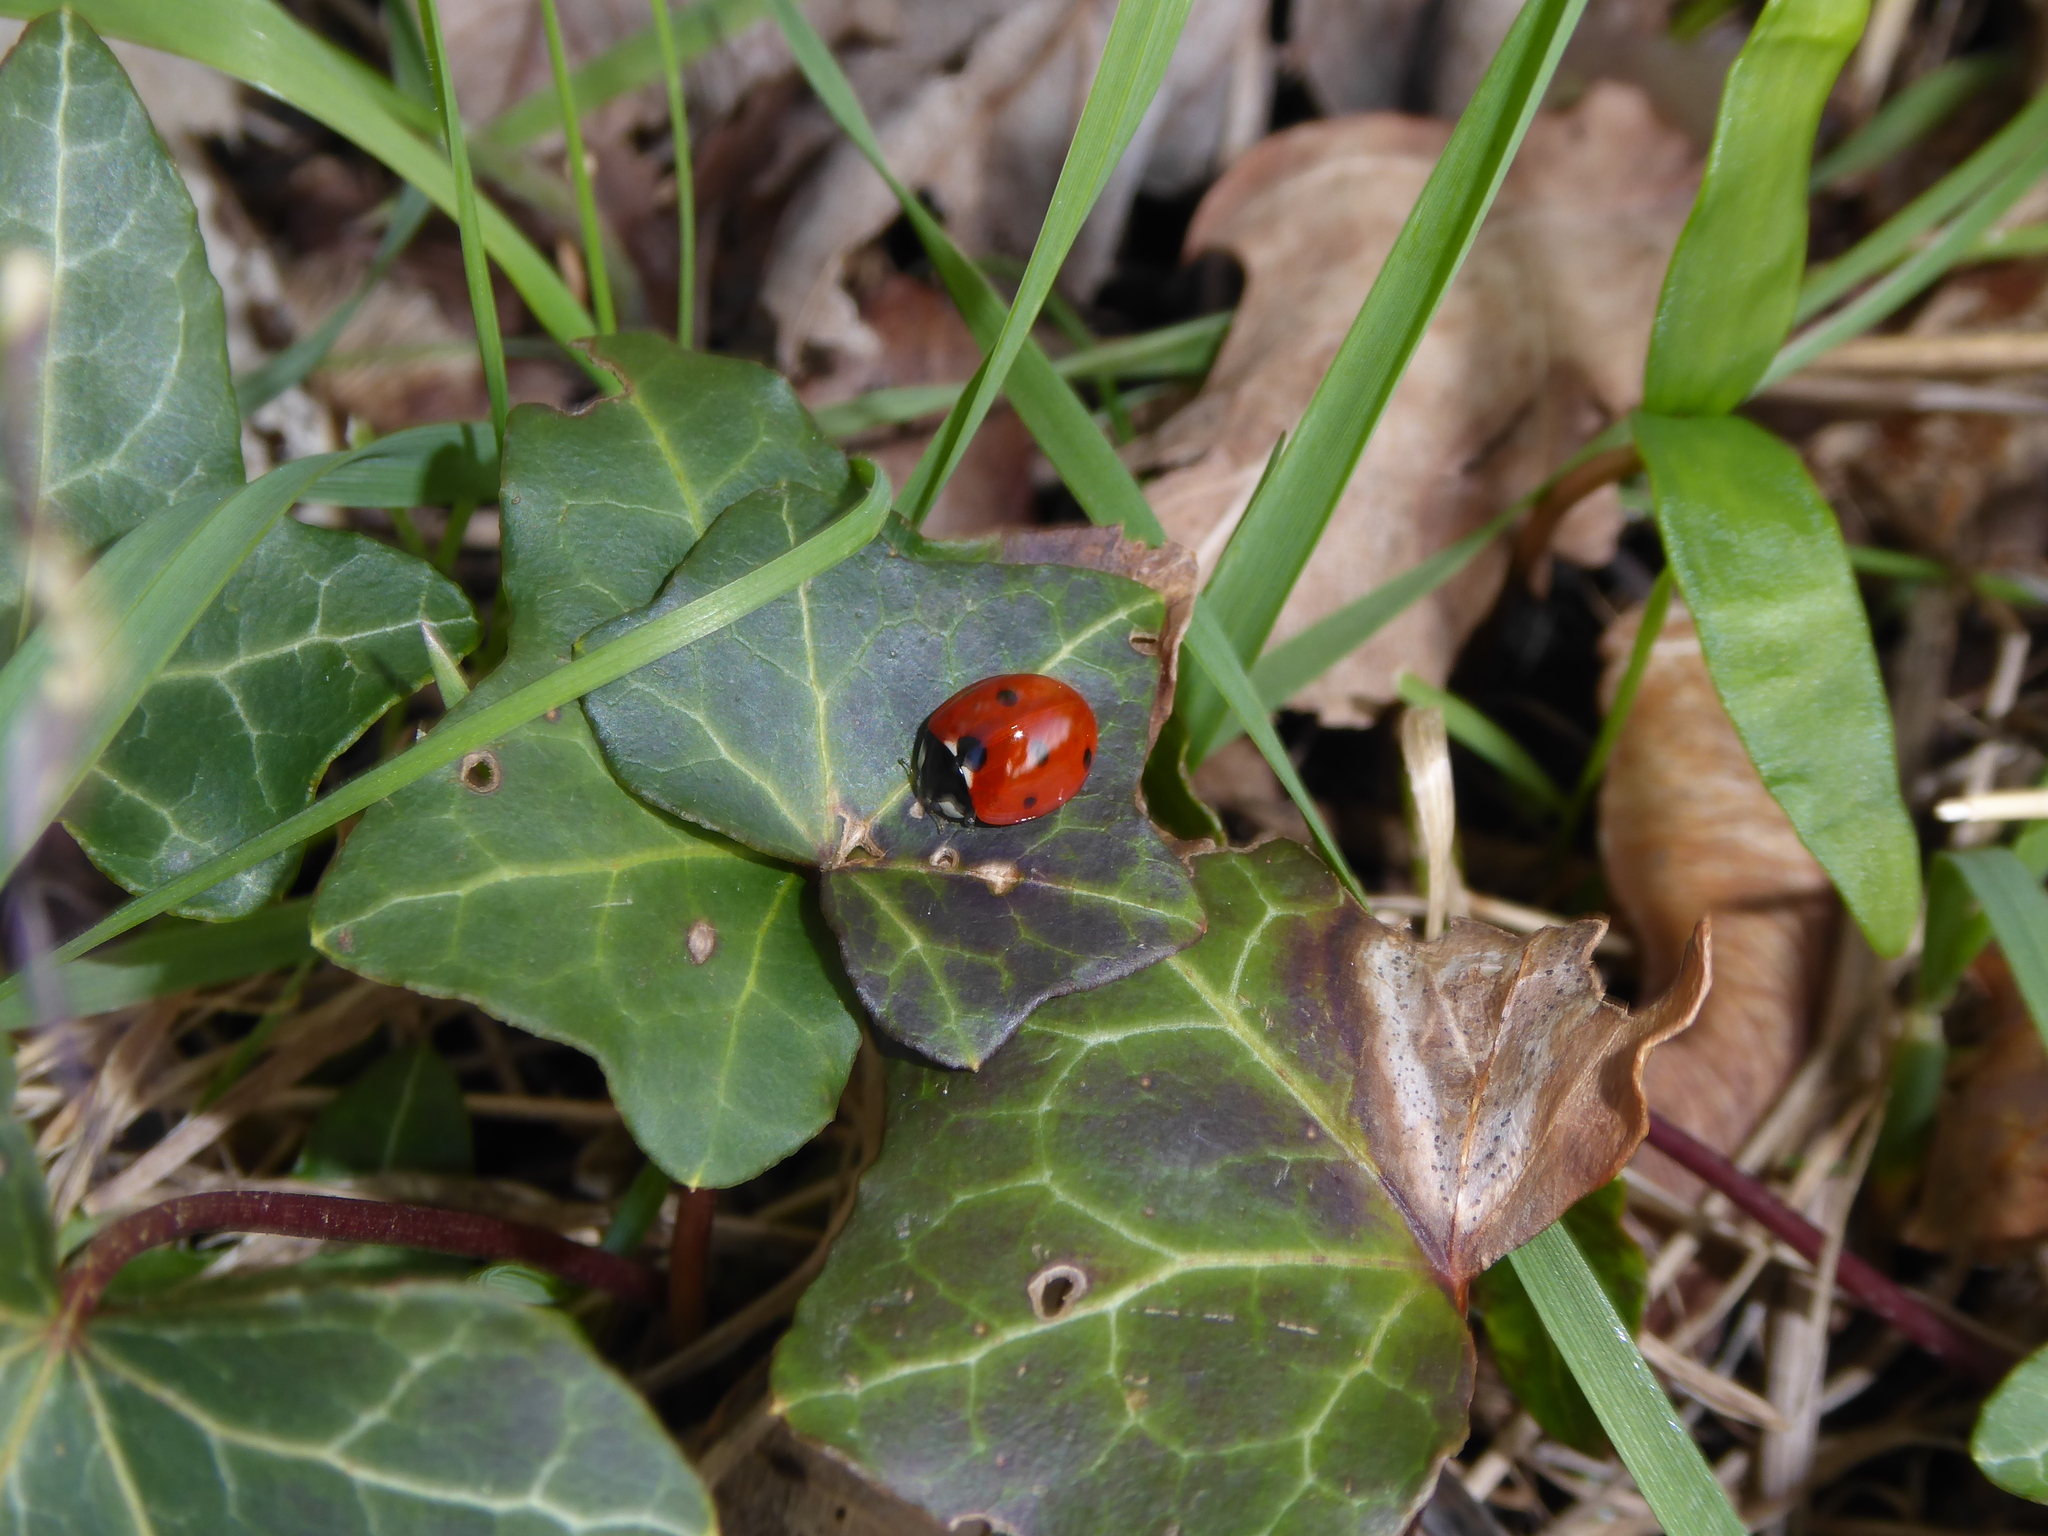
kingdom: Animalia
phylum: Arthropoda
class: Insecta
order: Coleoptera
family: Coccinellidae
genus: Coccinella
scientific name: Coccinella septempunctata
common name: Sevenspotted lady beetle
